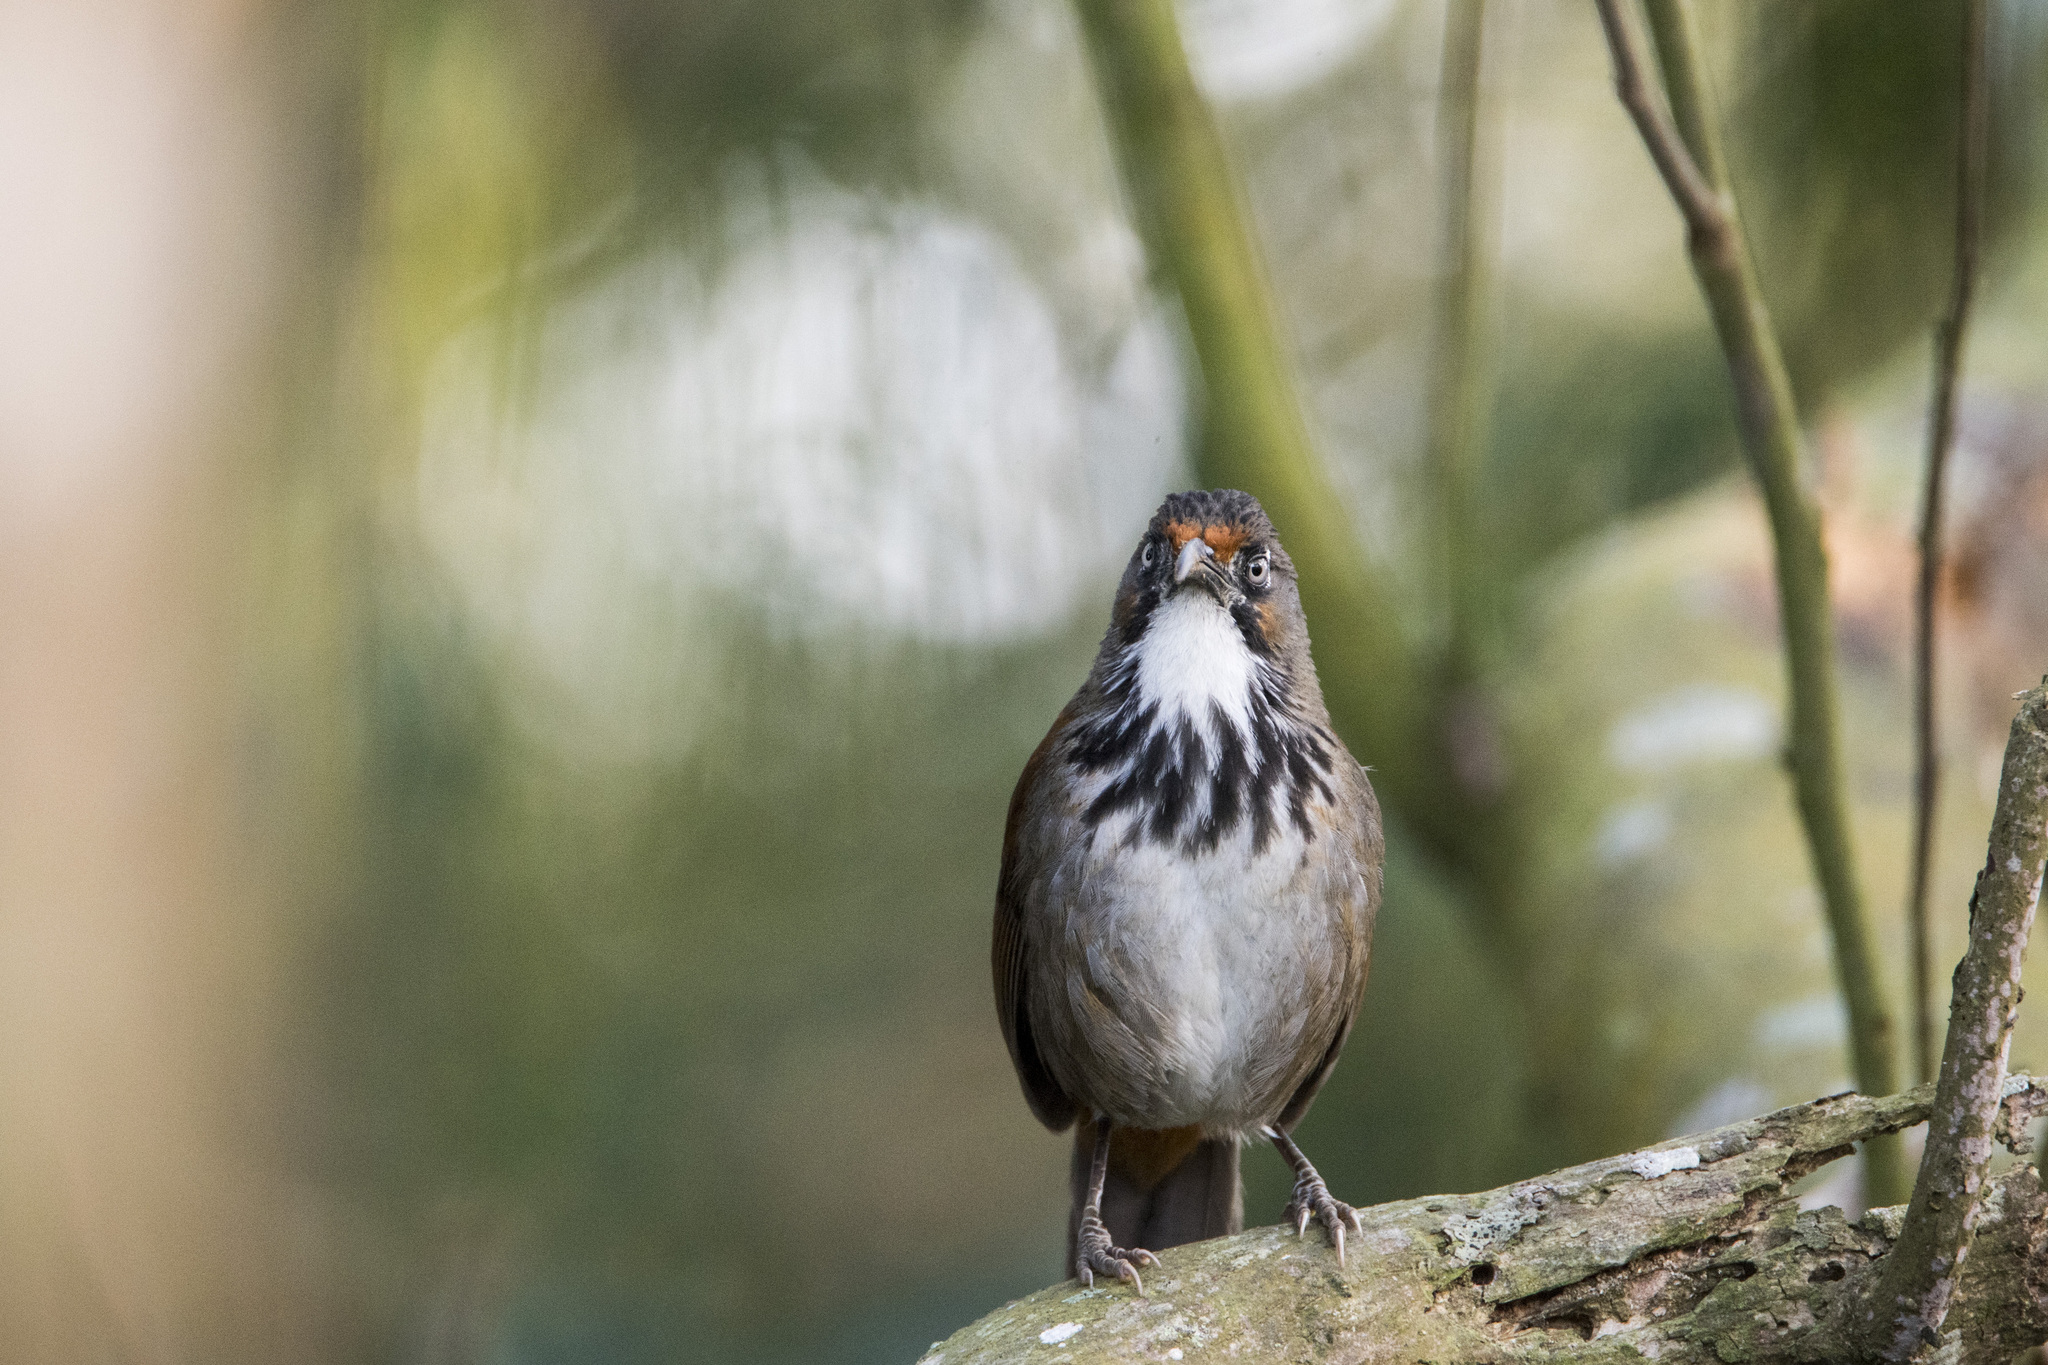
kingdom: Animalia
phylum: Chordata
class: Aves
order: Passeriformes
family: Timaliidae
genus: Pomatorhinus
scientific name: Pomatorhinus erythrocnemis
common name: Spot-breasted scimitar babbler
